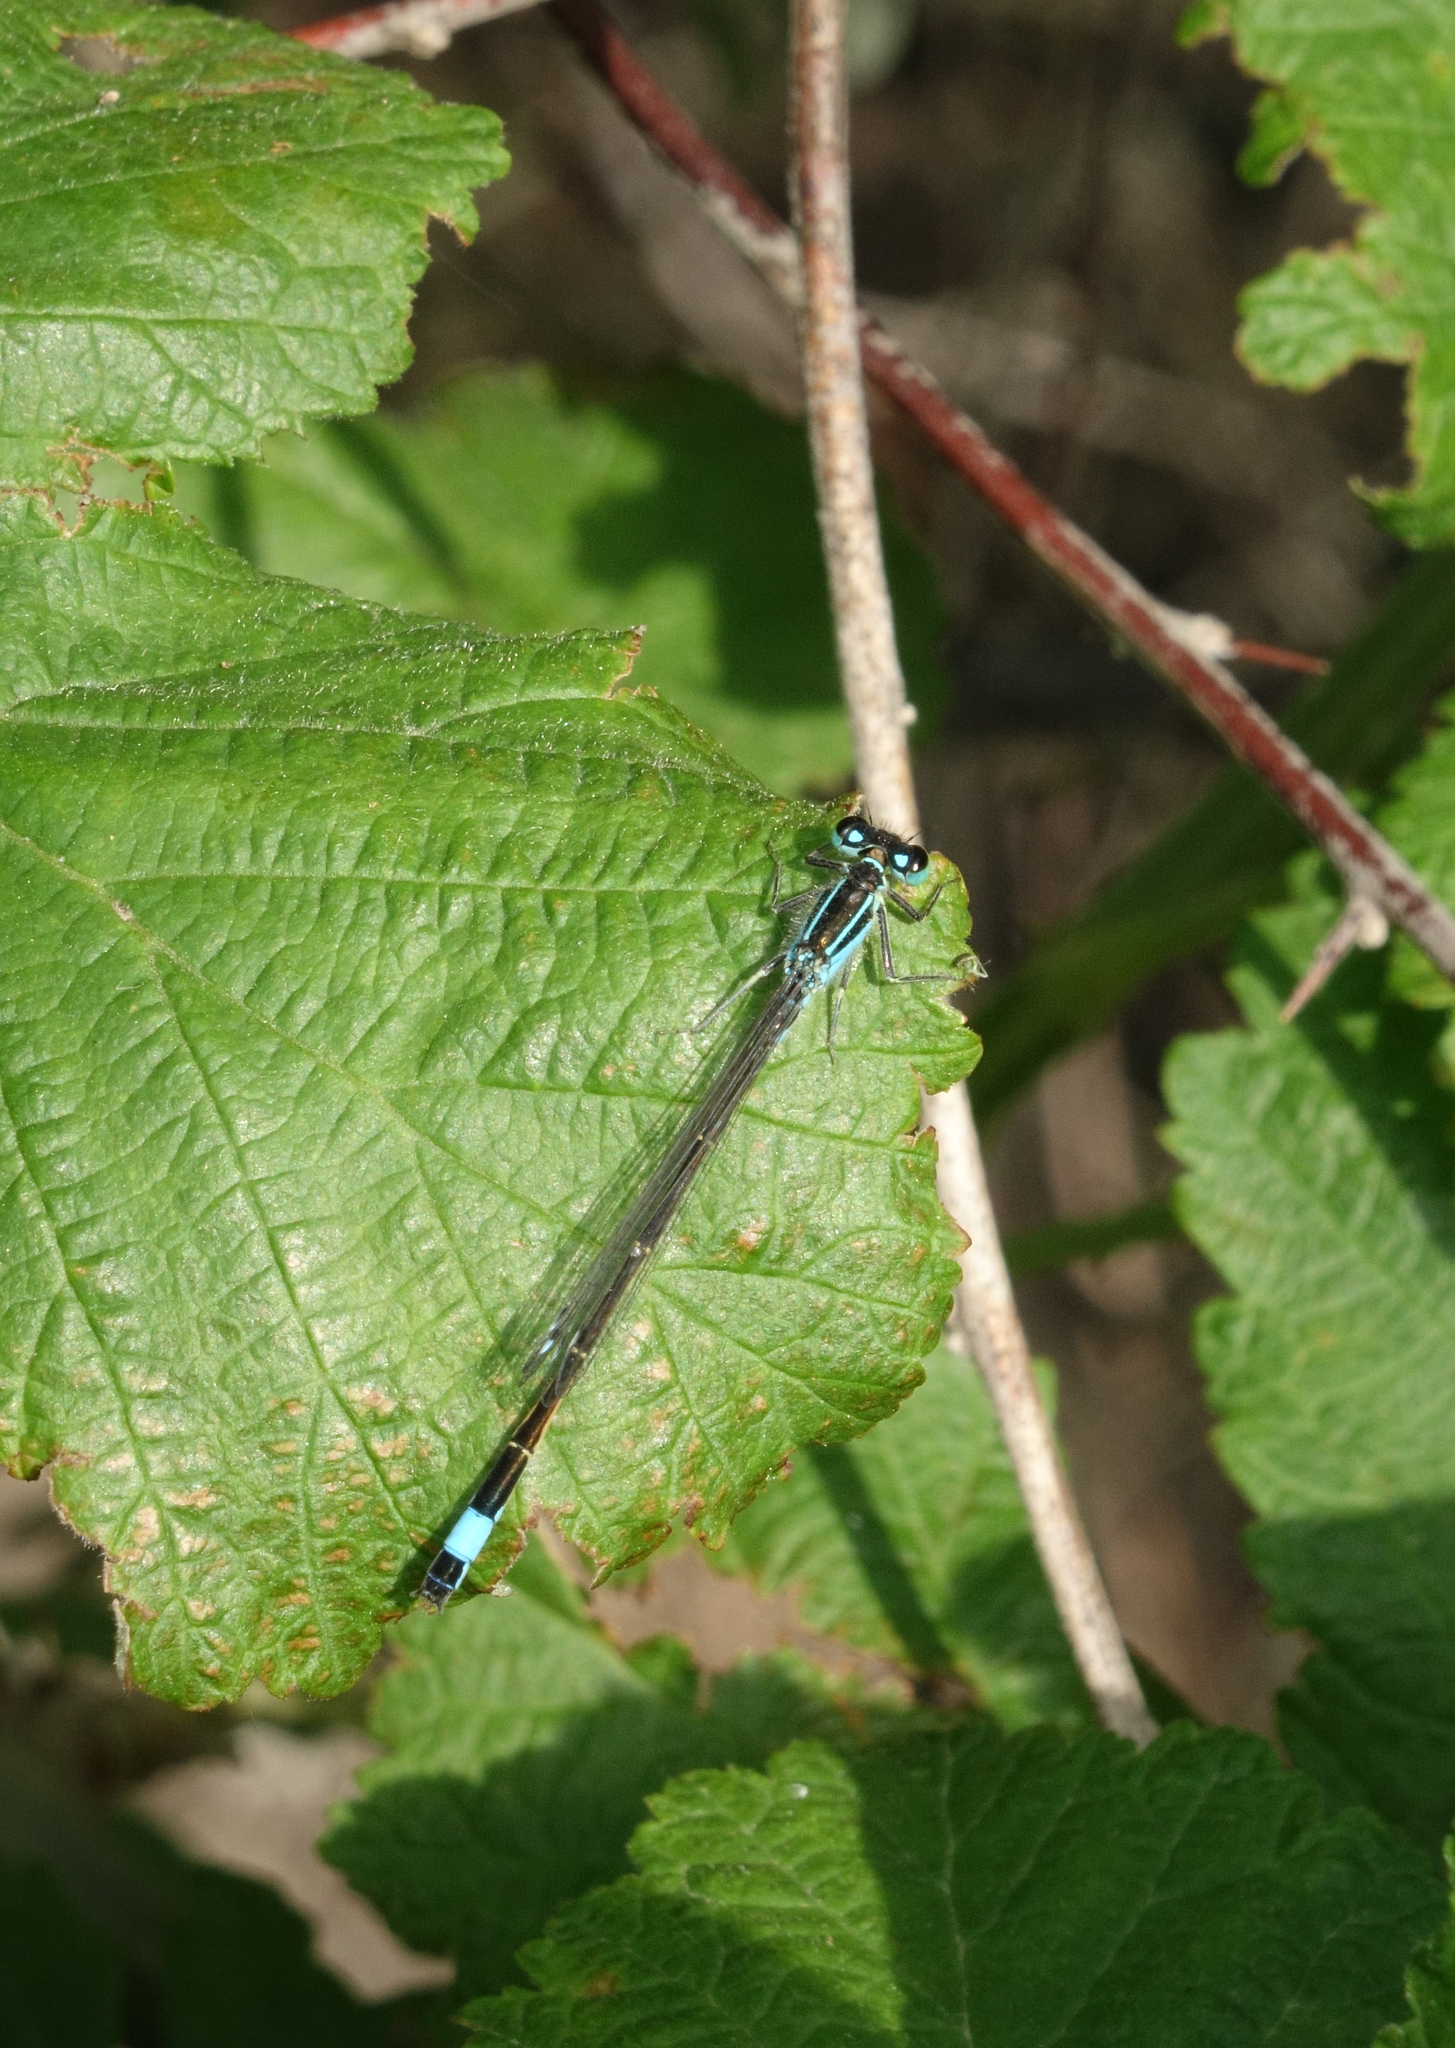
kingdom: Animalia
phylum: Arthropoda
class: Insecta
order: Odonata
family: Coenagrionidae
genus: Ischnura
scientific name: Ischnura elegans
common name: Blue-tailed damselfly
